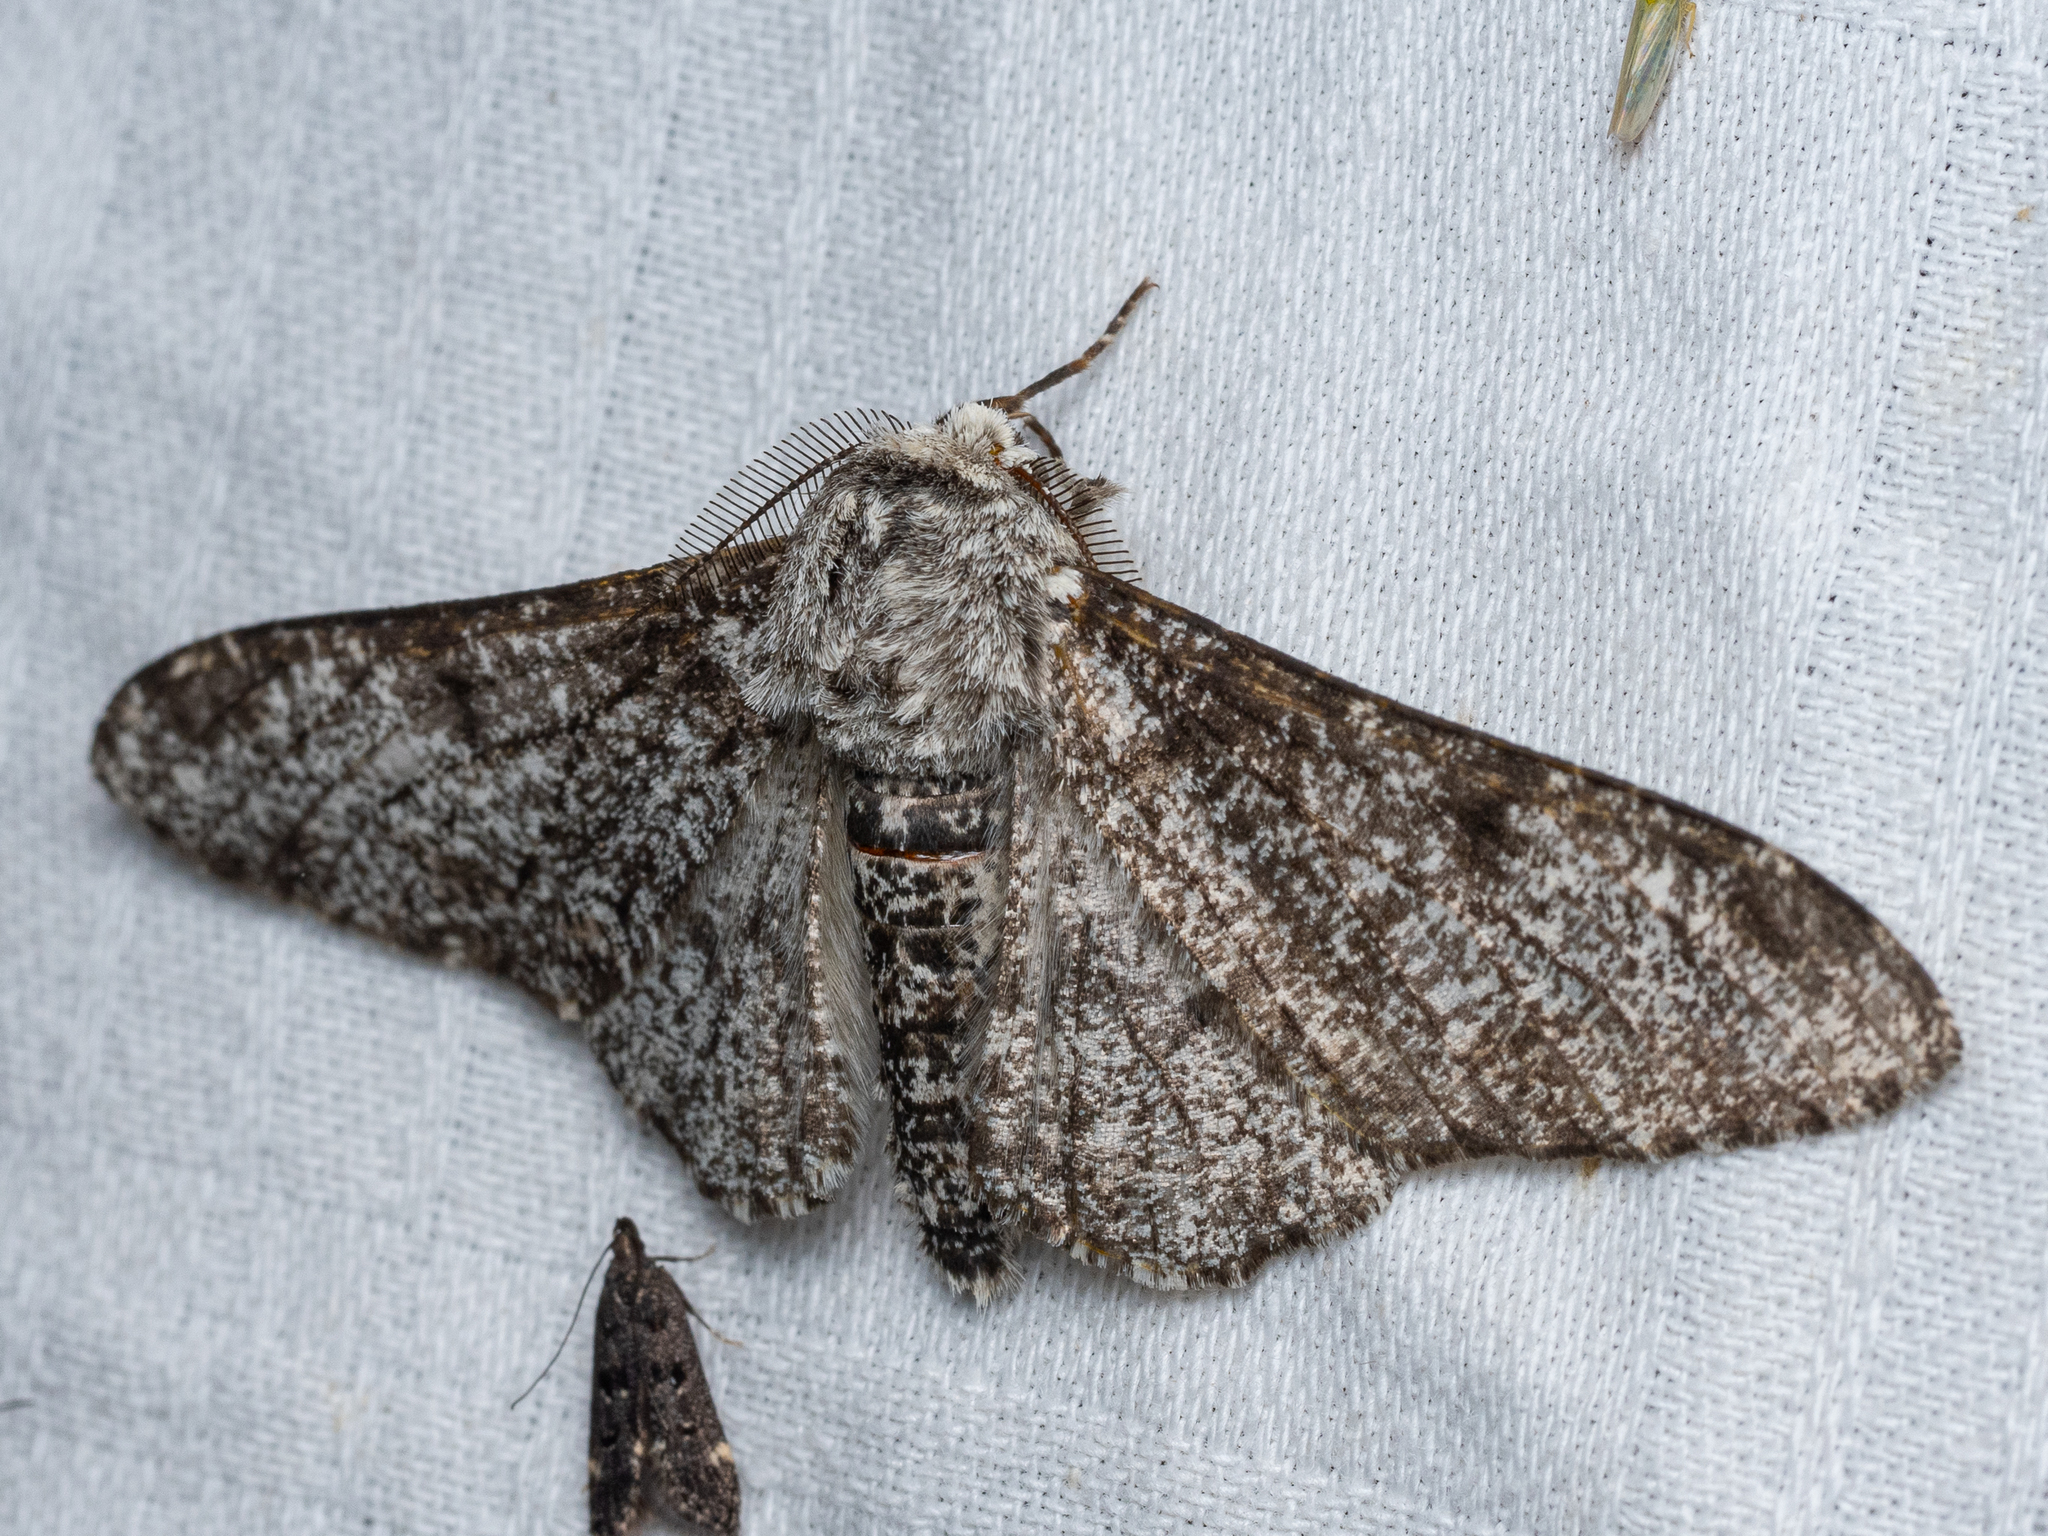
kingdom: Animalia
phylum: Arthropoda
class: Insecta
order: Lepidoptera
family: Geometridae
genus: Biston
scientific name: Biston betularia
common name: Peppered moth
